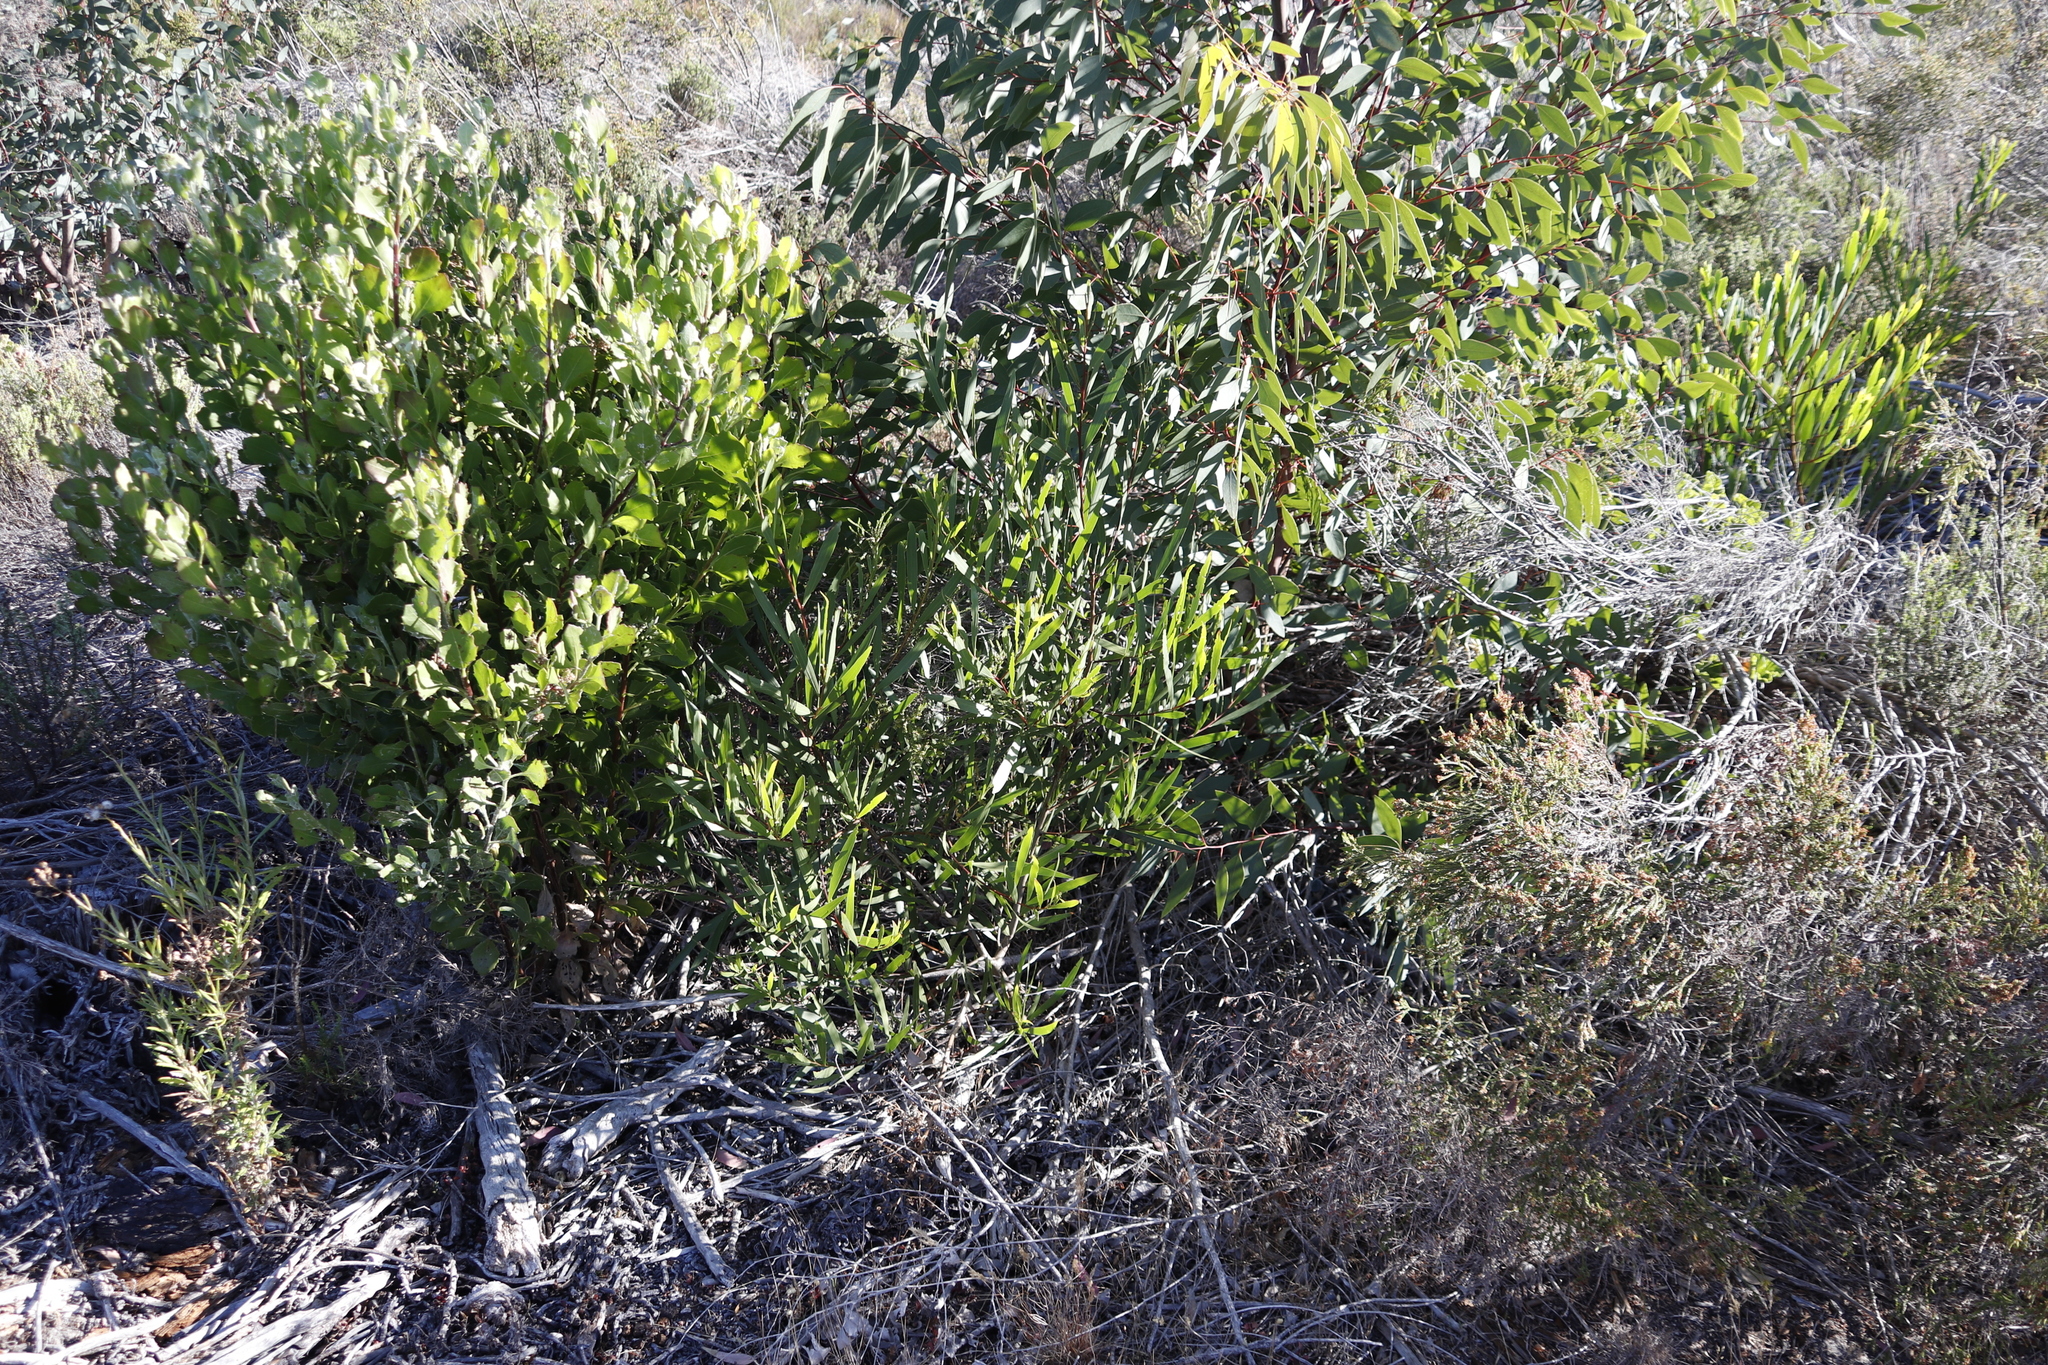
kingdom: Plantae
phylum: Tracheophyta
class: Magnoliopsida
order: Fabales
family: Fabaceae
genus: Acacia
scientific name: Acacia longifolia
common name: Sydney golden wattle
